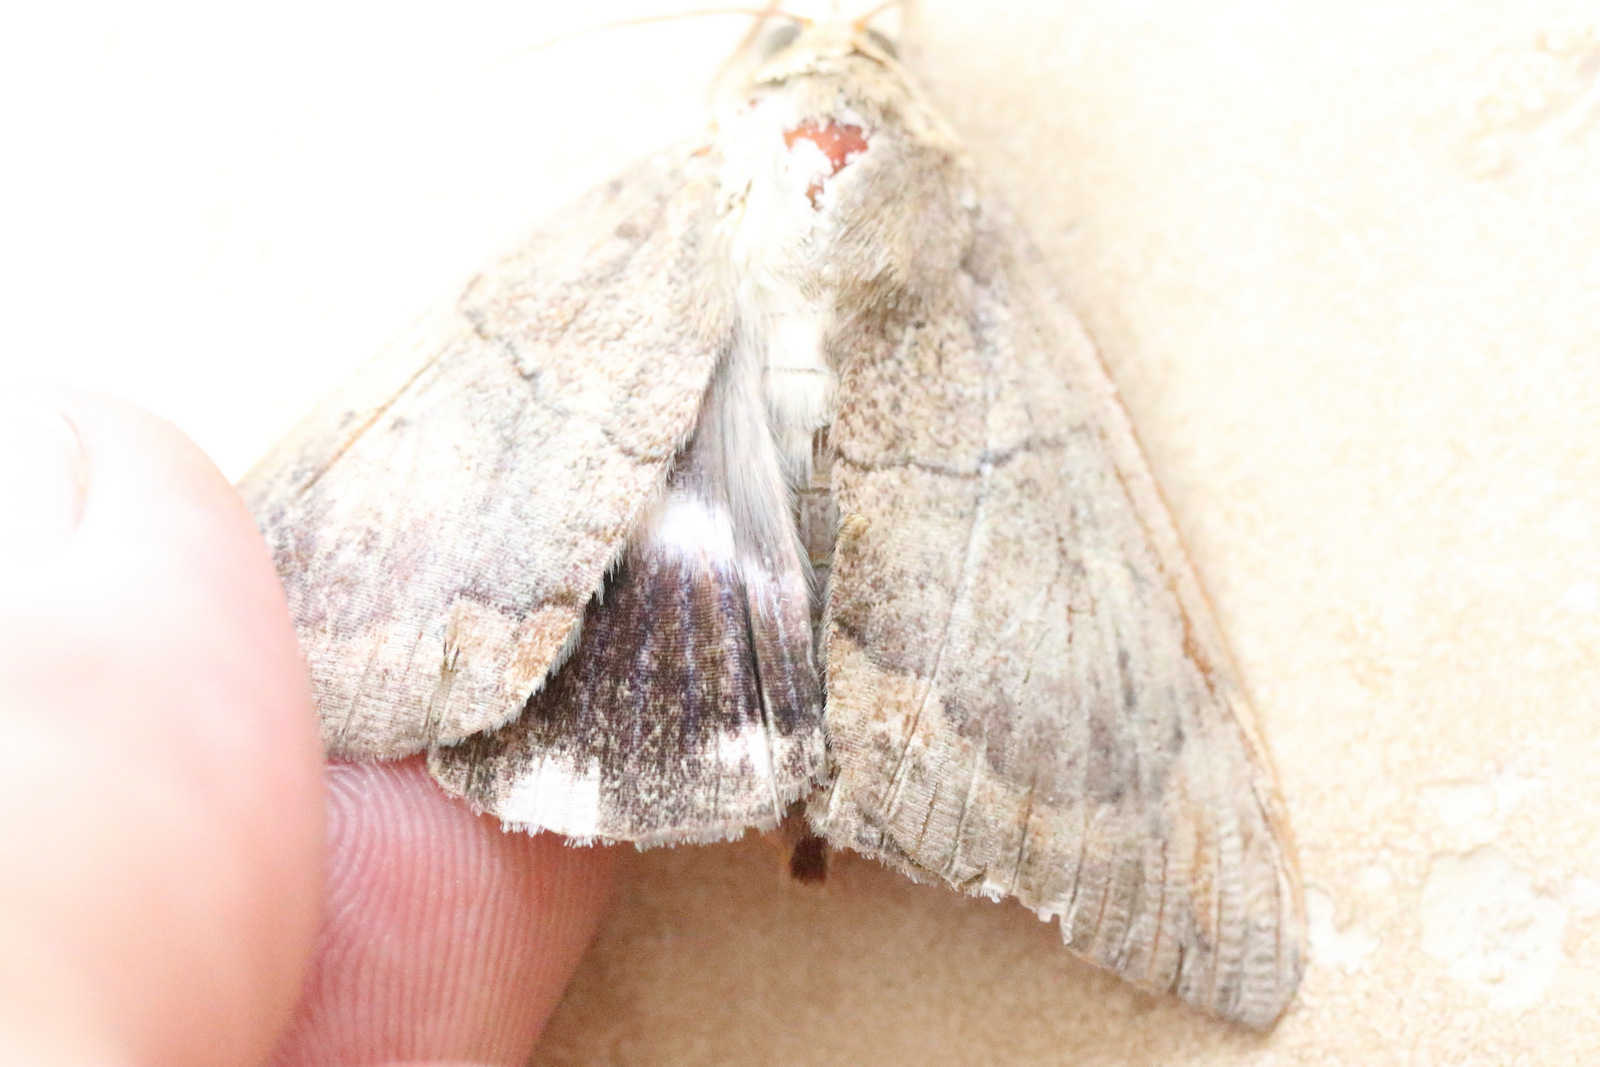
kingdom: Animalia
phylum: Arthropoda
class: Insecta
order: Lepidoptera
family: Erebidae
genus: Achaea
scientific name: Achaea janata
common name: Croton caterpillar
